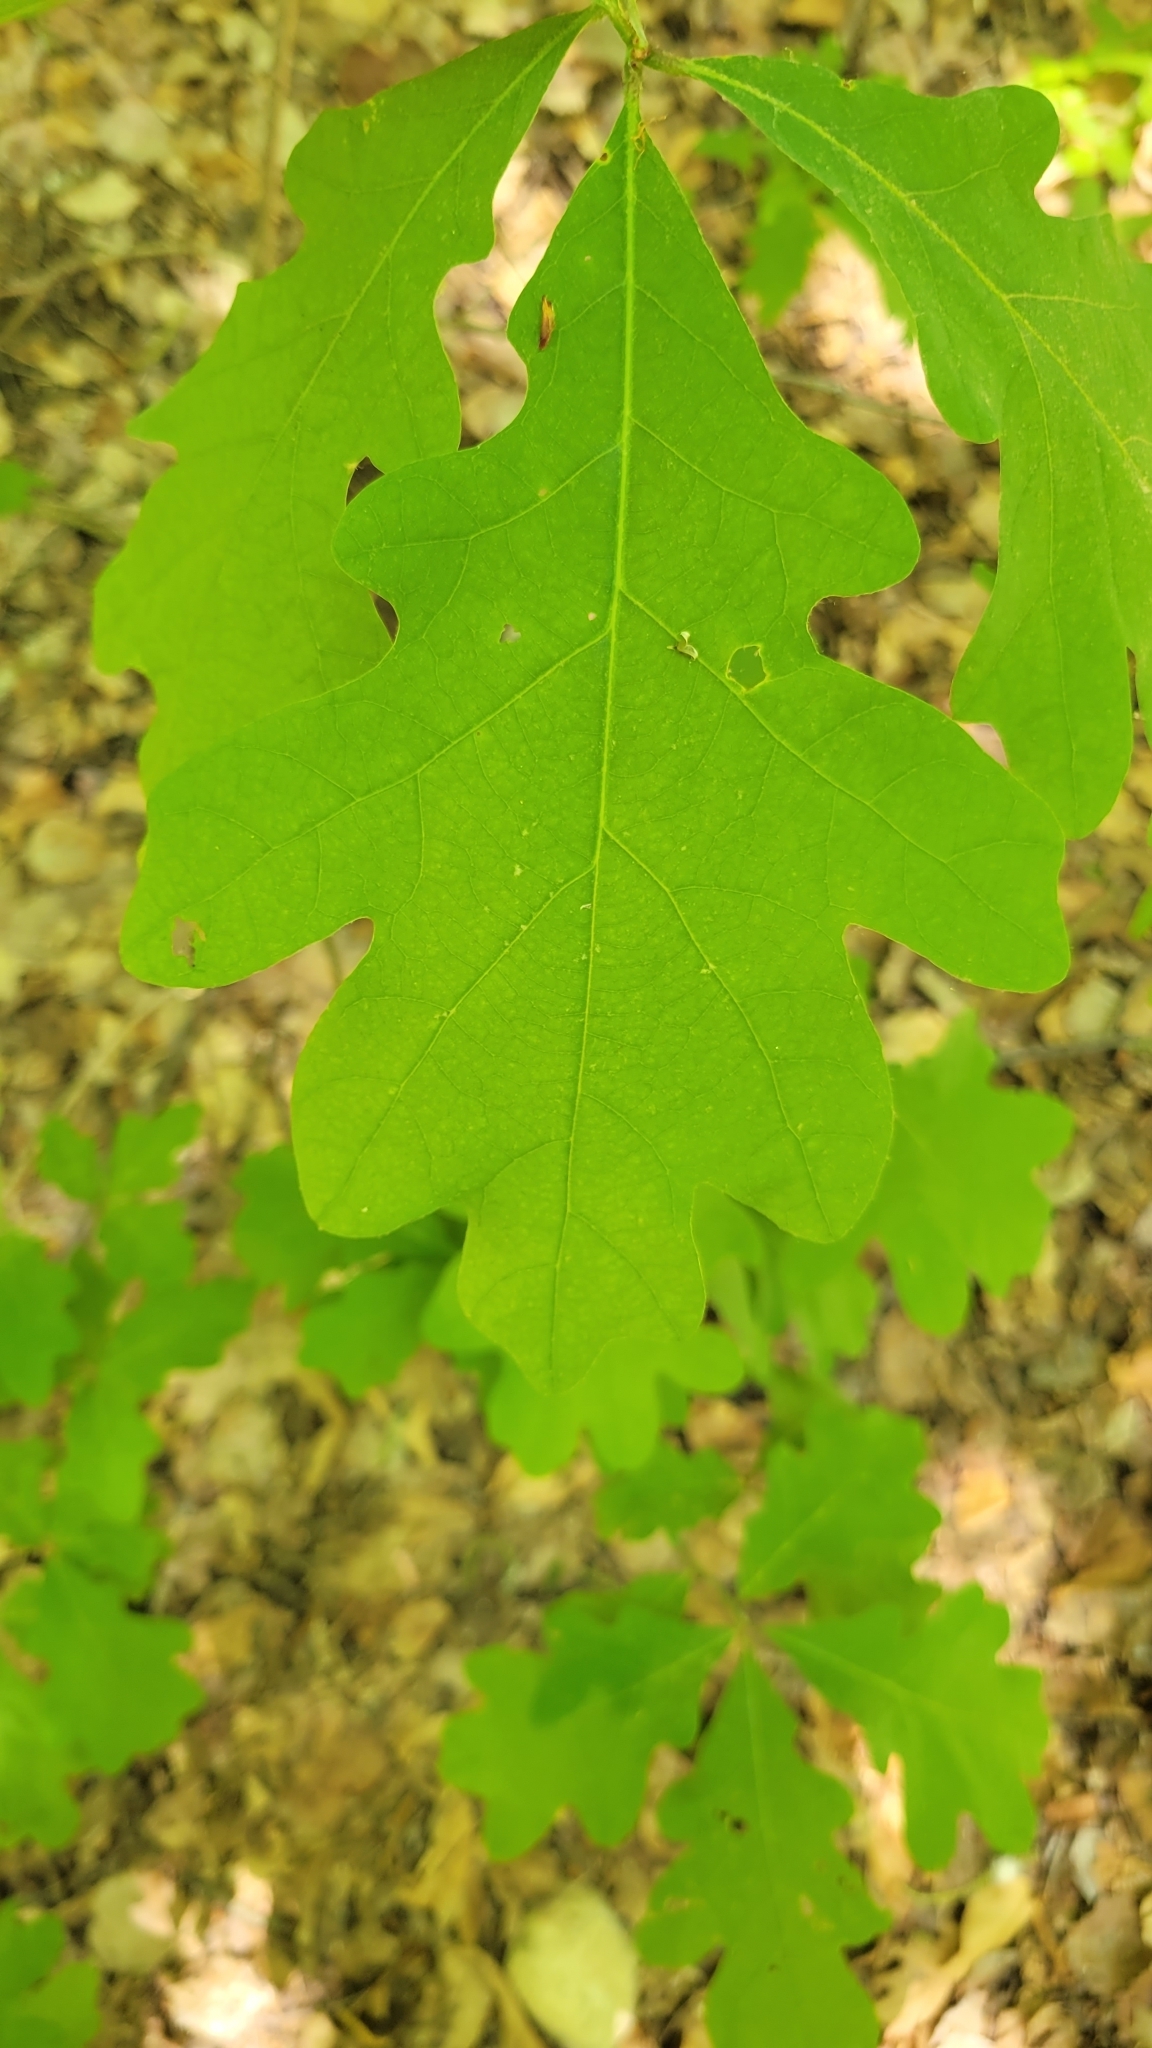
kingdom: Plantae
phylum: Tracheophyta
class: Magnoliopsida
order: Fagales
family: Fagaceae
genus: Quercus
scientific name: Quercus alba
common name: White oak
